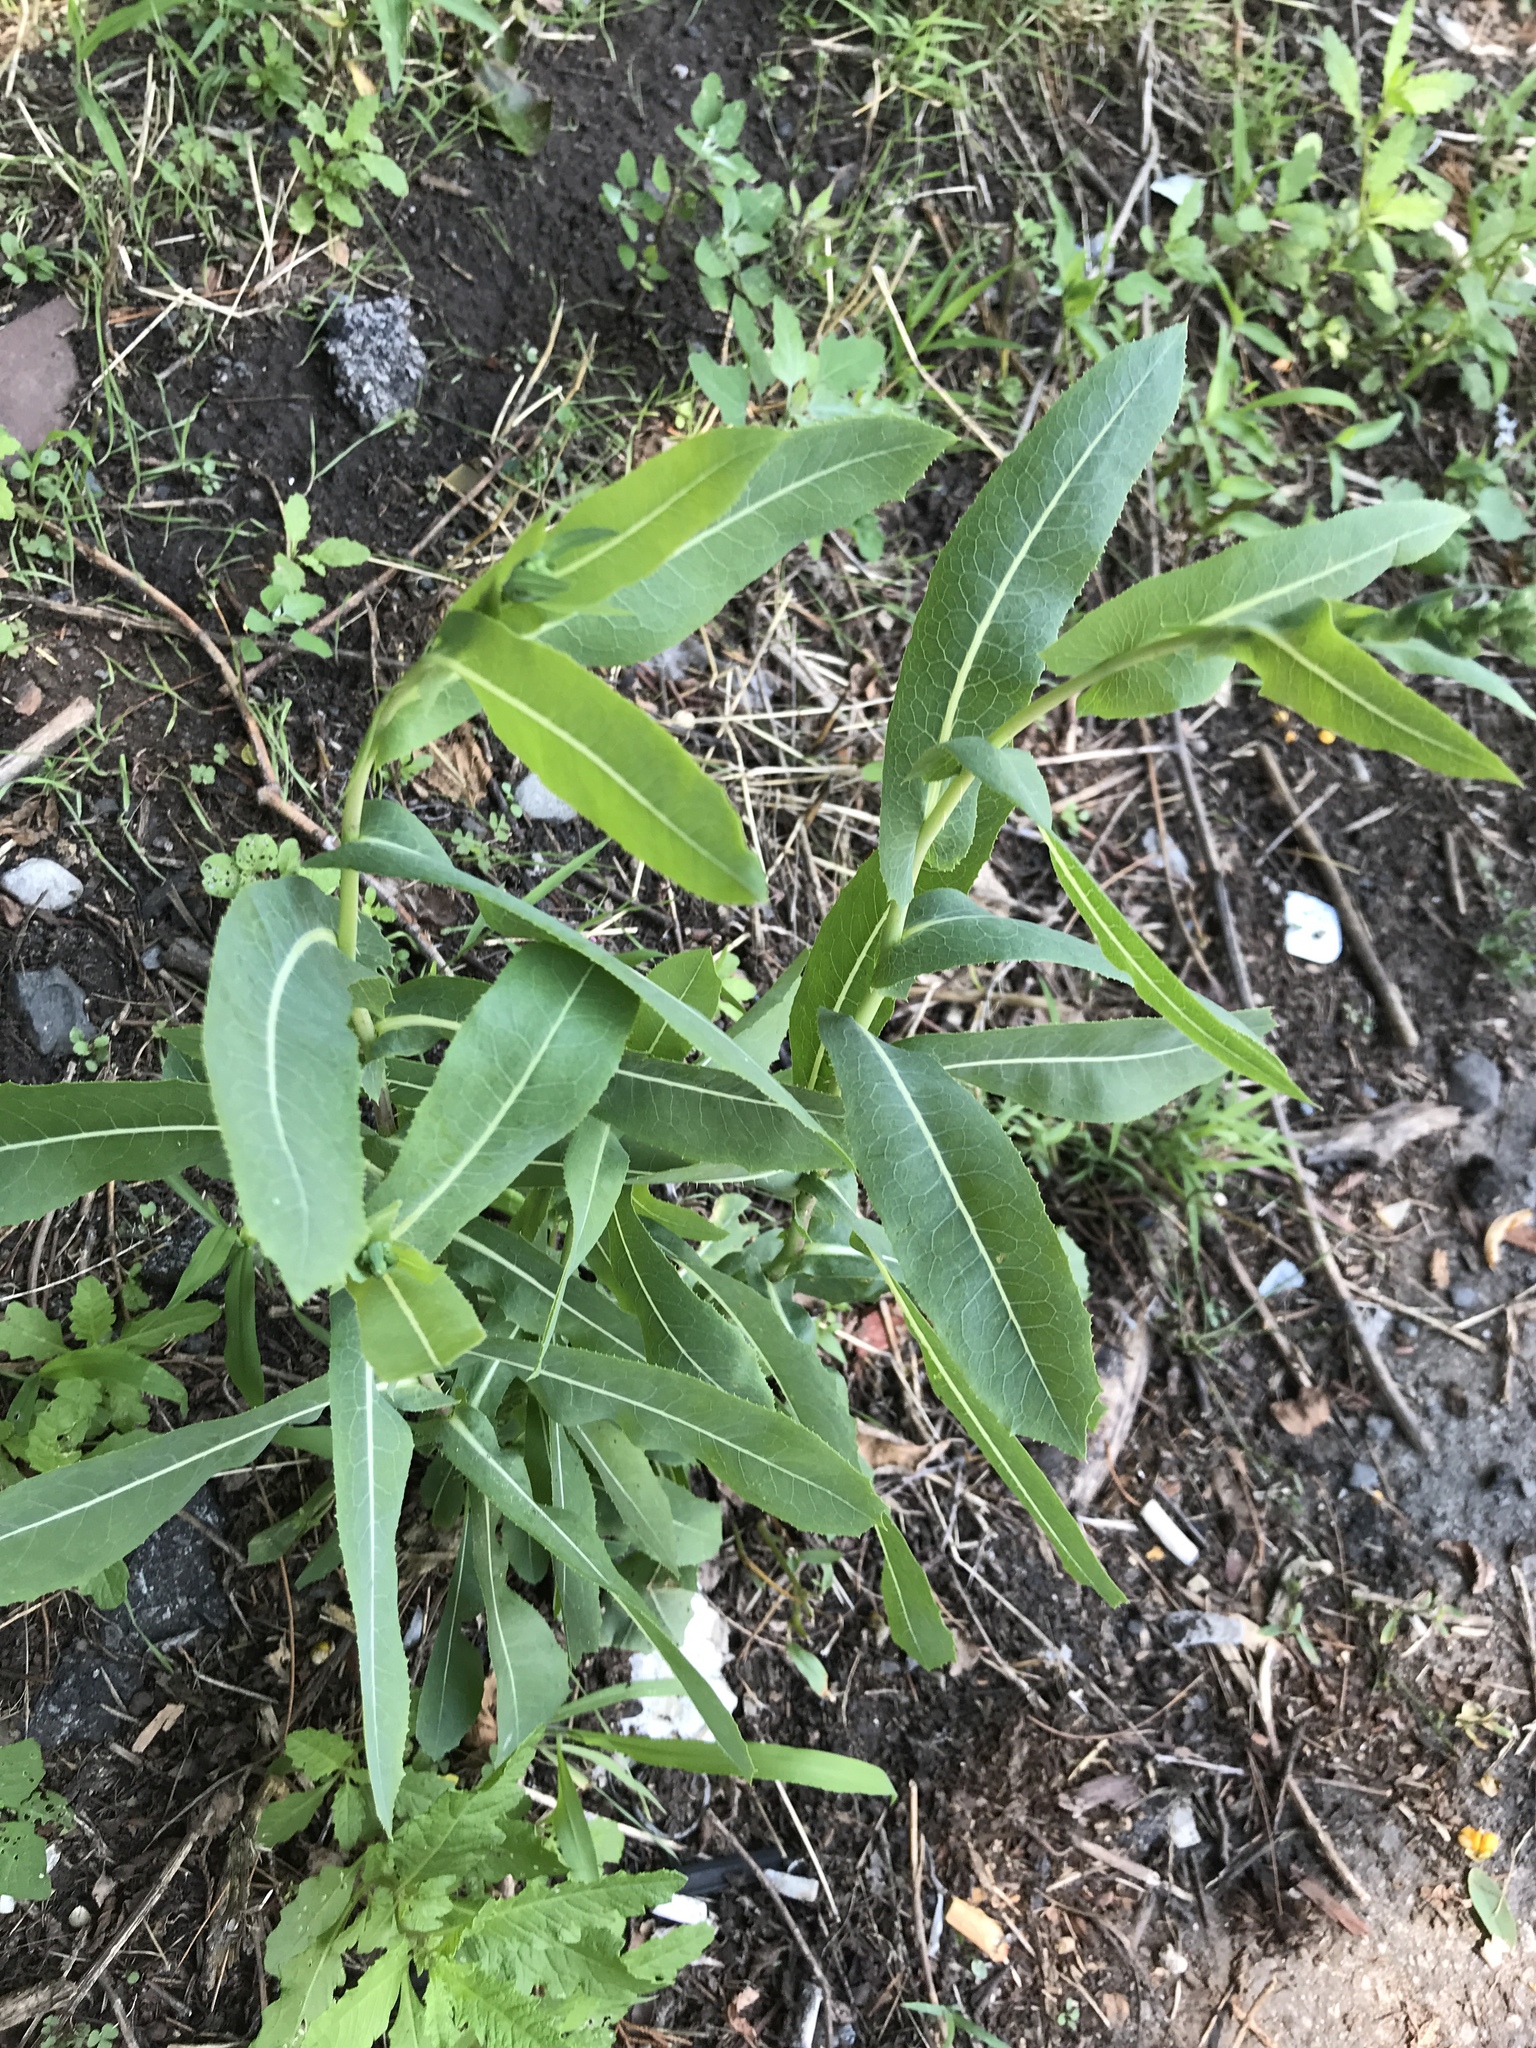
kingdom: Plantae
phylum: Tracheophyta
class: Magnoliopsida
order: Asterales
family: Asteraceae
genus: Lactuca
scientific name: Lactuca serriola
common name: Prickly lettuce
